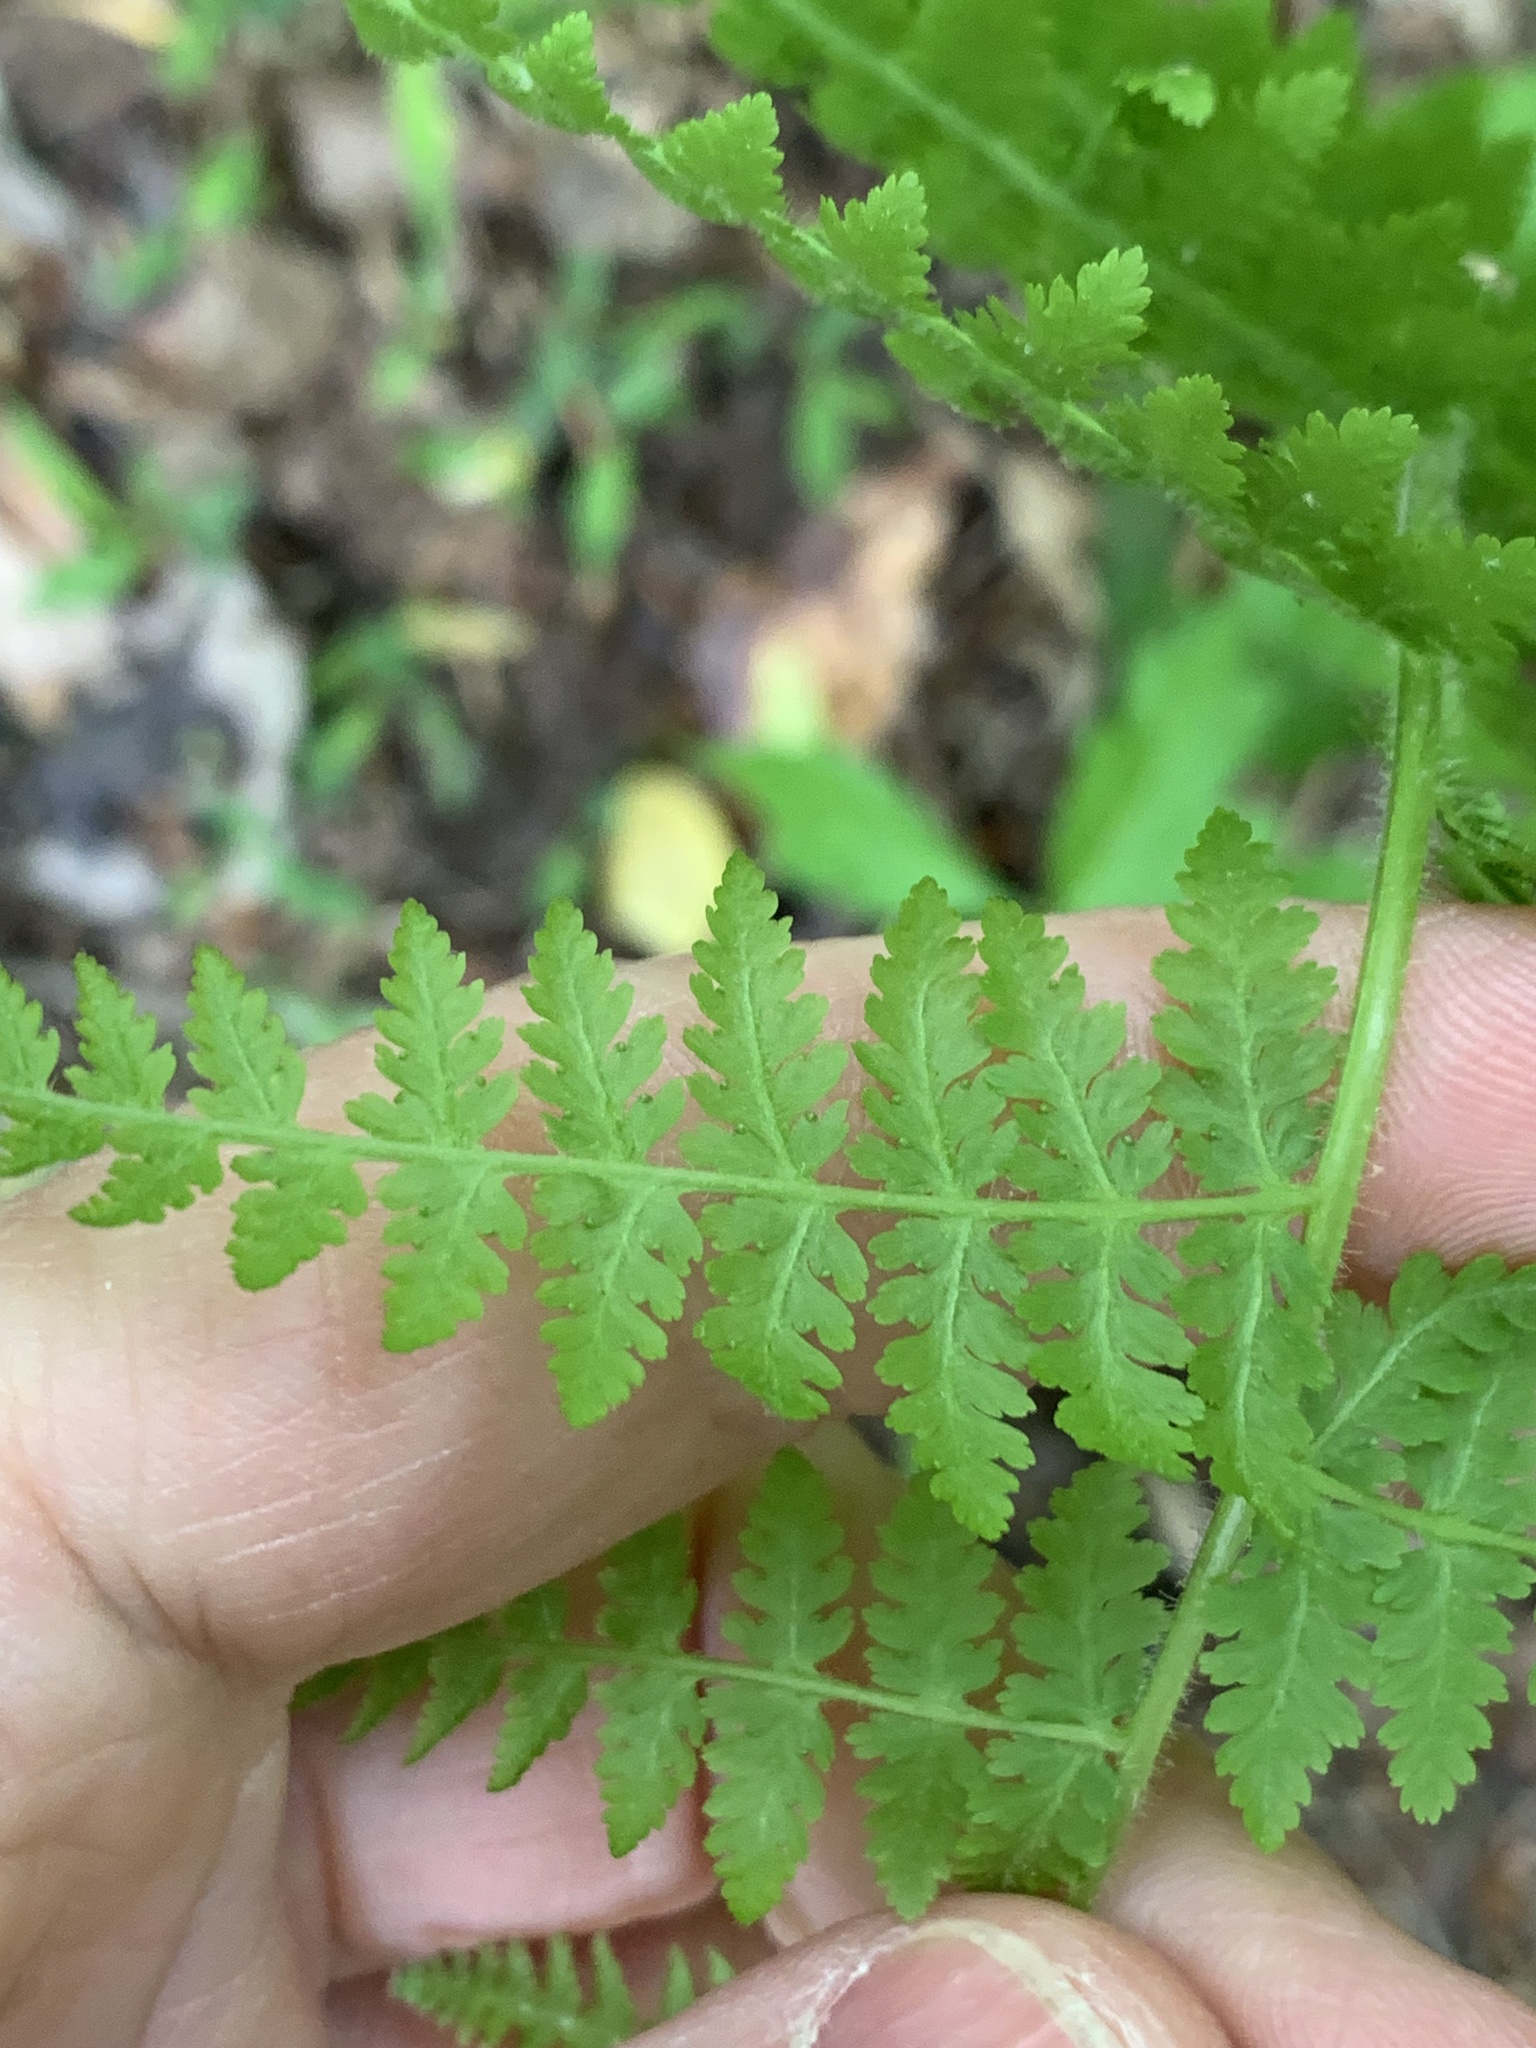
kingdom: Plantae
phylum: Tracheophyta
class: Polypodiopsida
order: Polypodiales
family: Dennstaedtiaceae
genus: Sitobolium
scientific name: Sitobolium punctilobum
